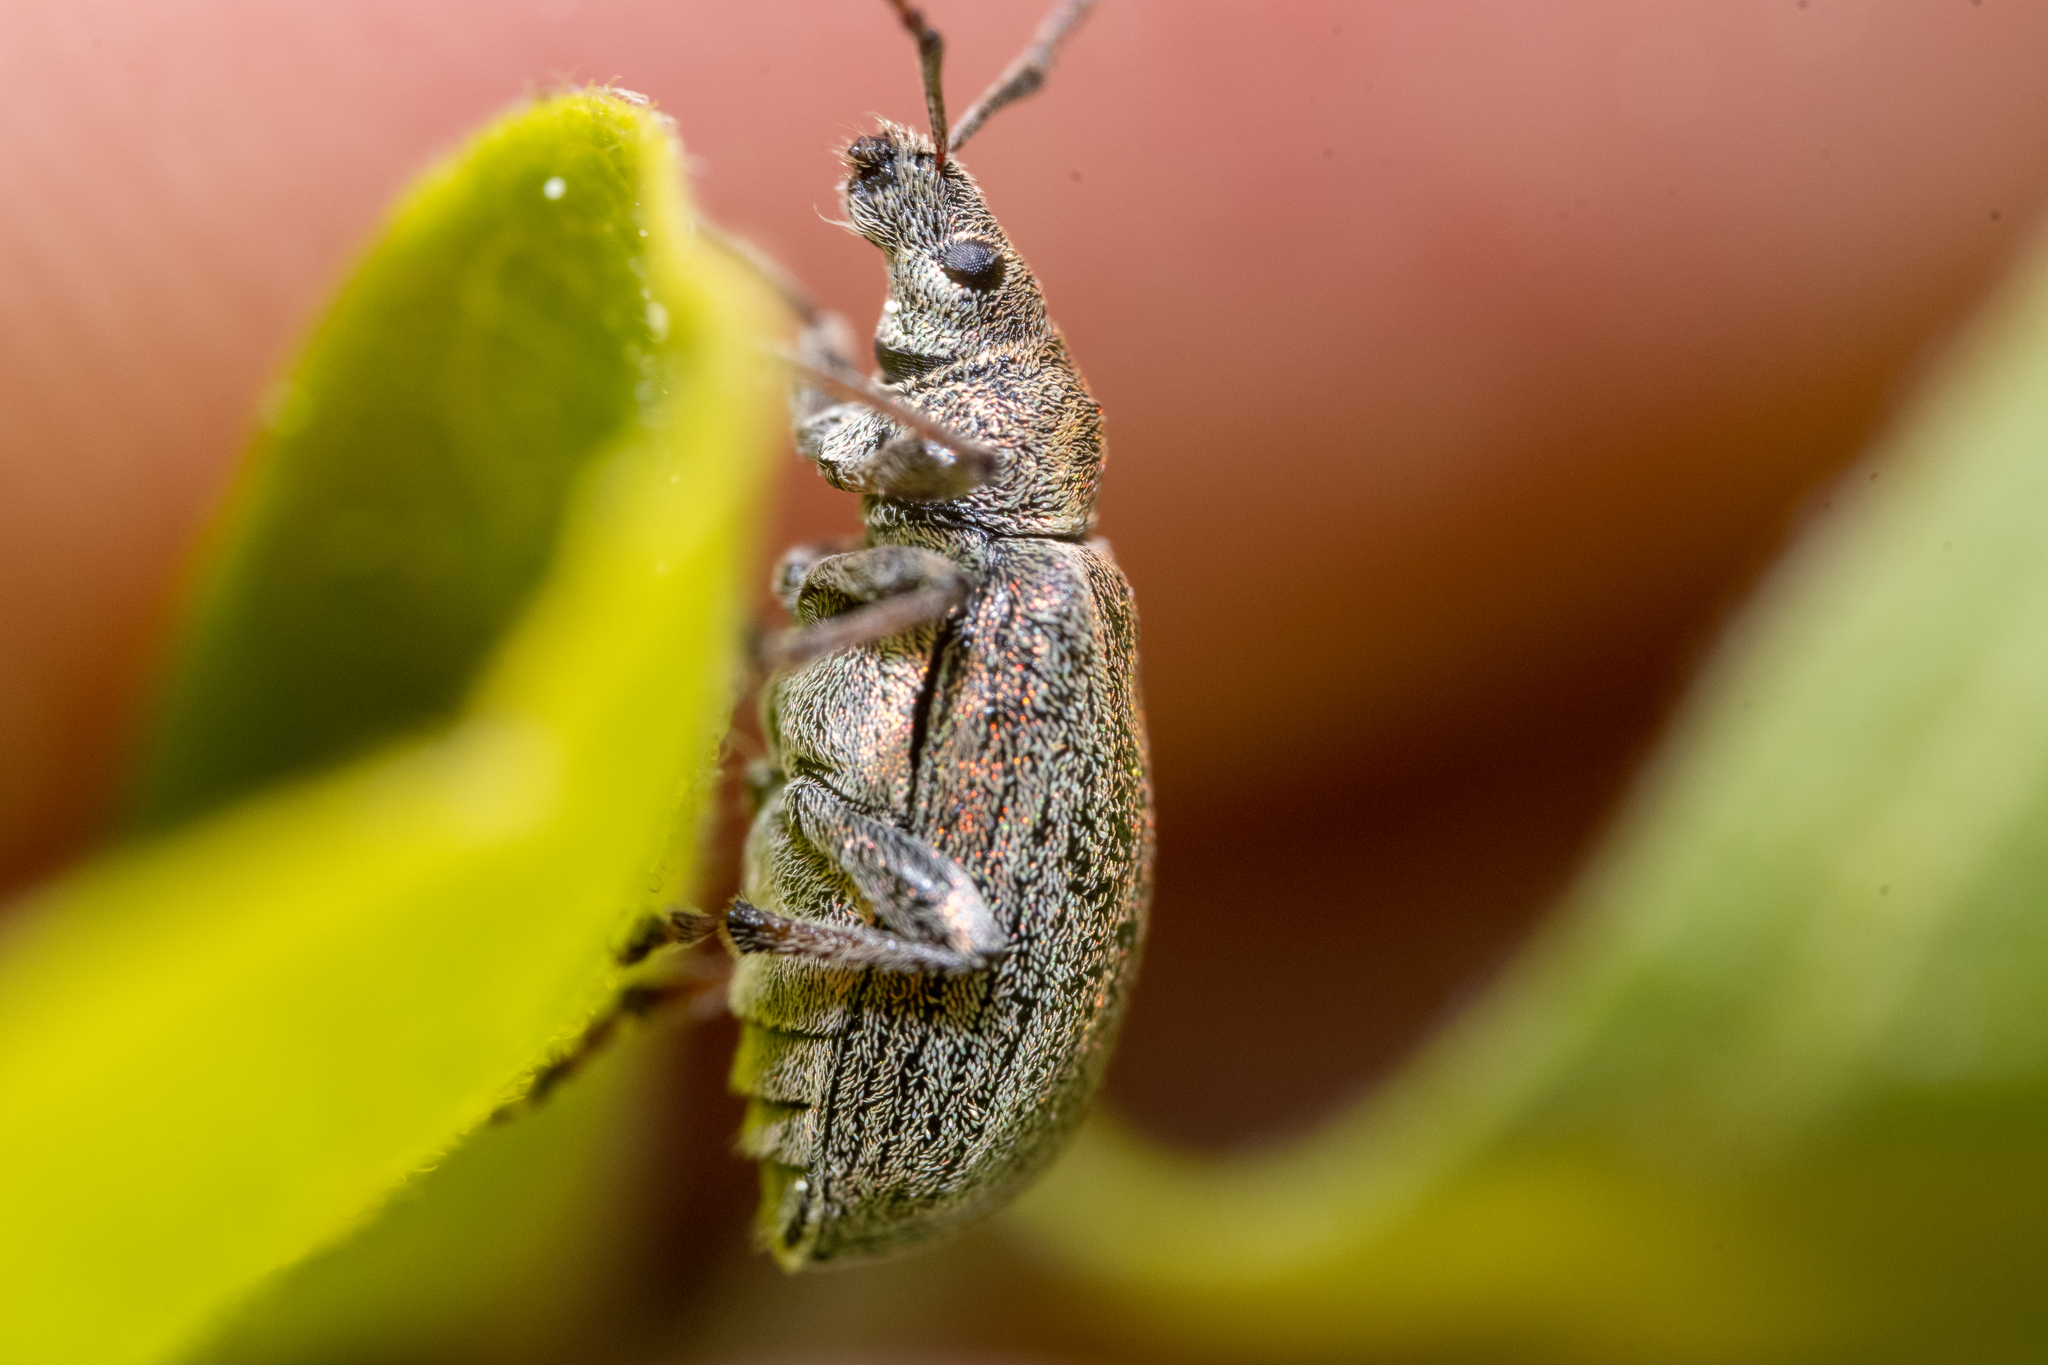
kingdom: Animalia
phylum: Arthropoda
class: Insecta
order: Coleoptera
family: Curculionidae
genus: Phyllobius
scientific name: Phyllobius pyri
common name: Common leaf weevil
